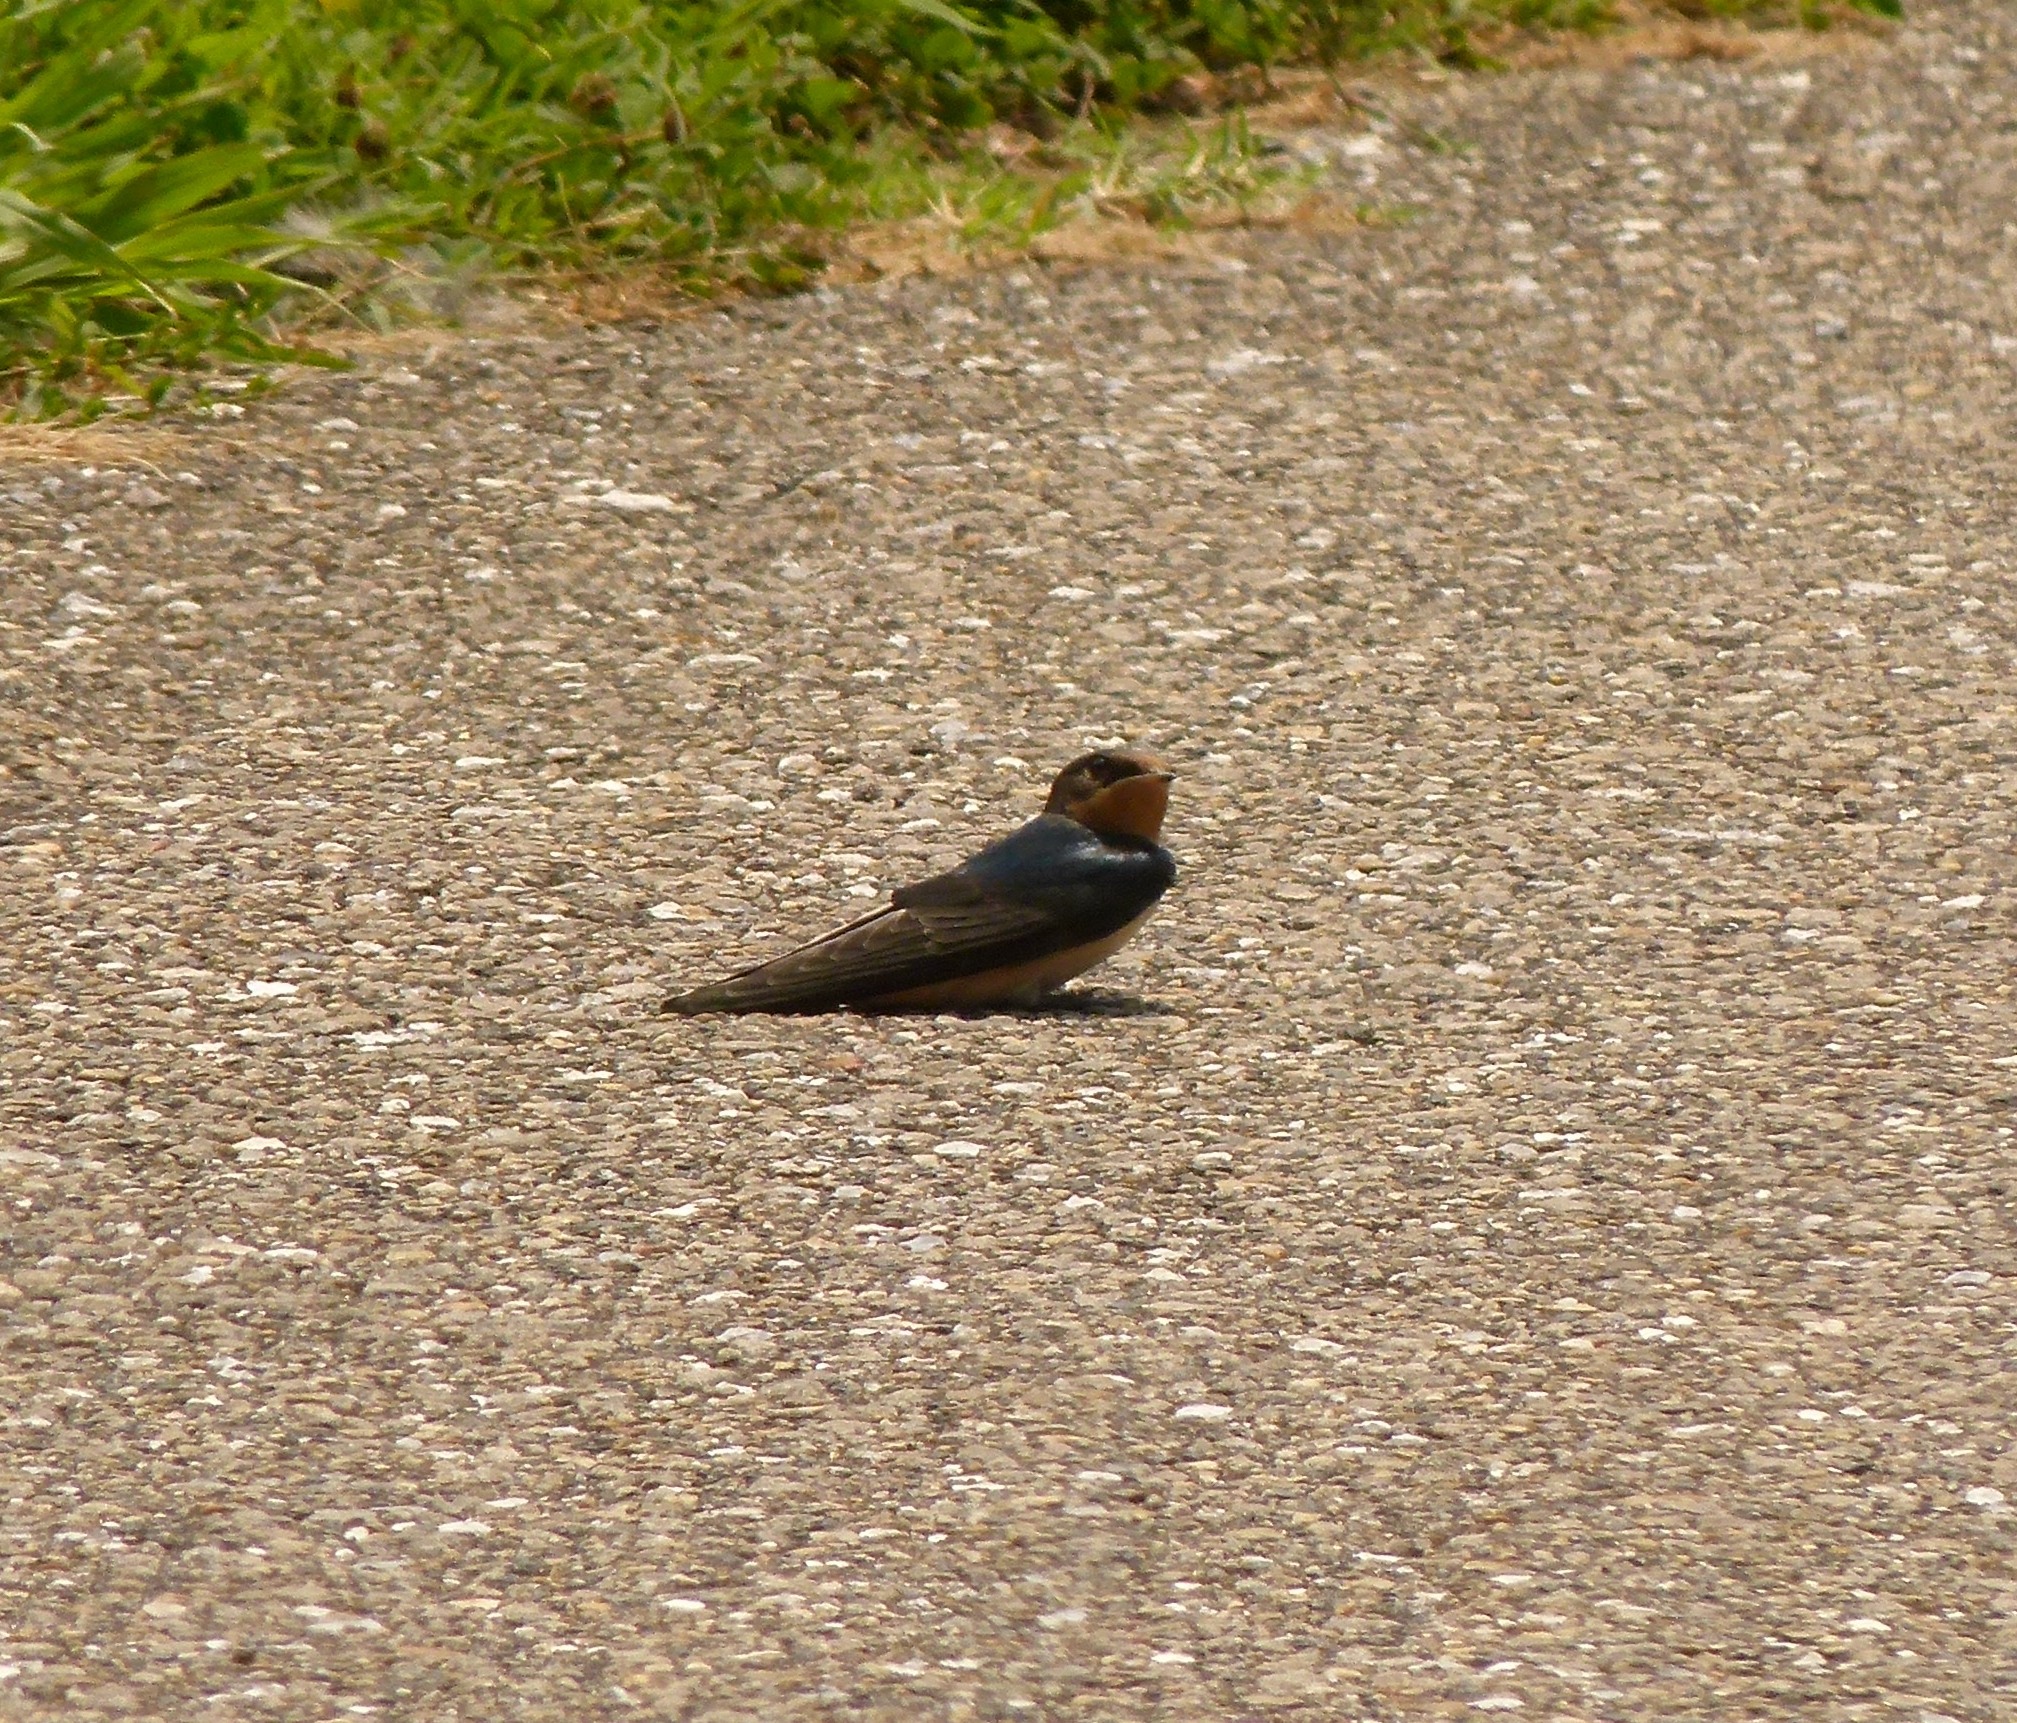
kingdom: Animalia
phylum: Chordata
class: Aves
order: Passeriformes
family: Hirundinidae
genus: Hirundo
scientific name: Hirundo rustica
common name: Barn swallow
